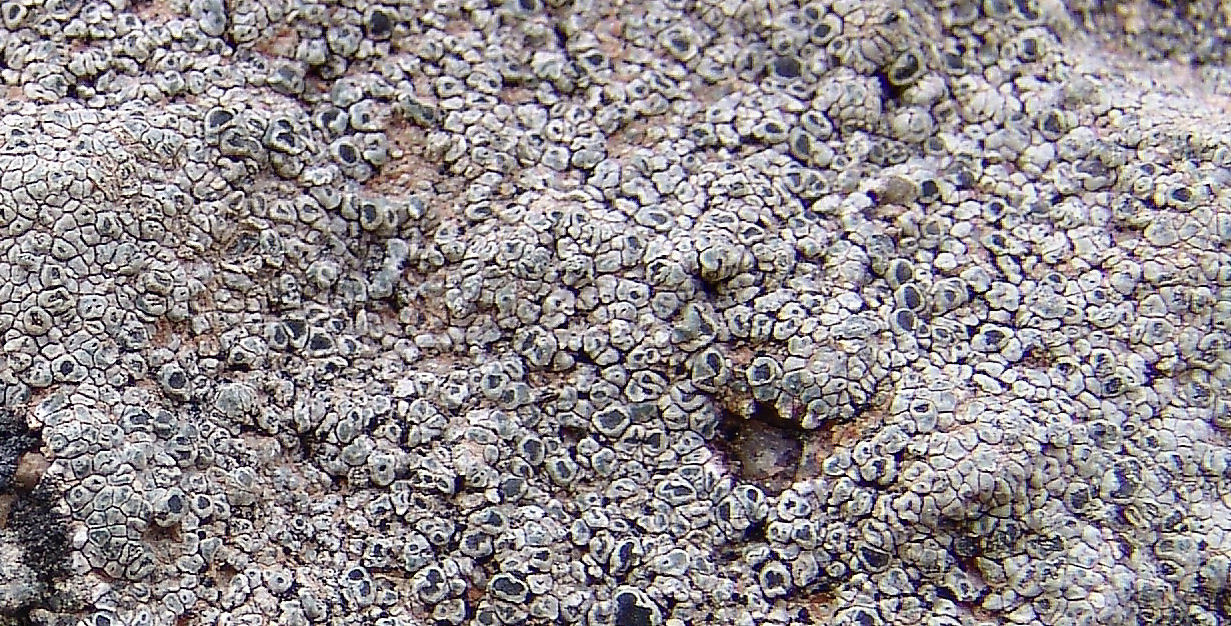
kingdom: Fungi
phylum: Ascomycota
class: Lecanoromycetes
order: Pertusariales
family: Megasporaceae
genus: Aspicilia
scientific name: Aspicilia phaea
